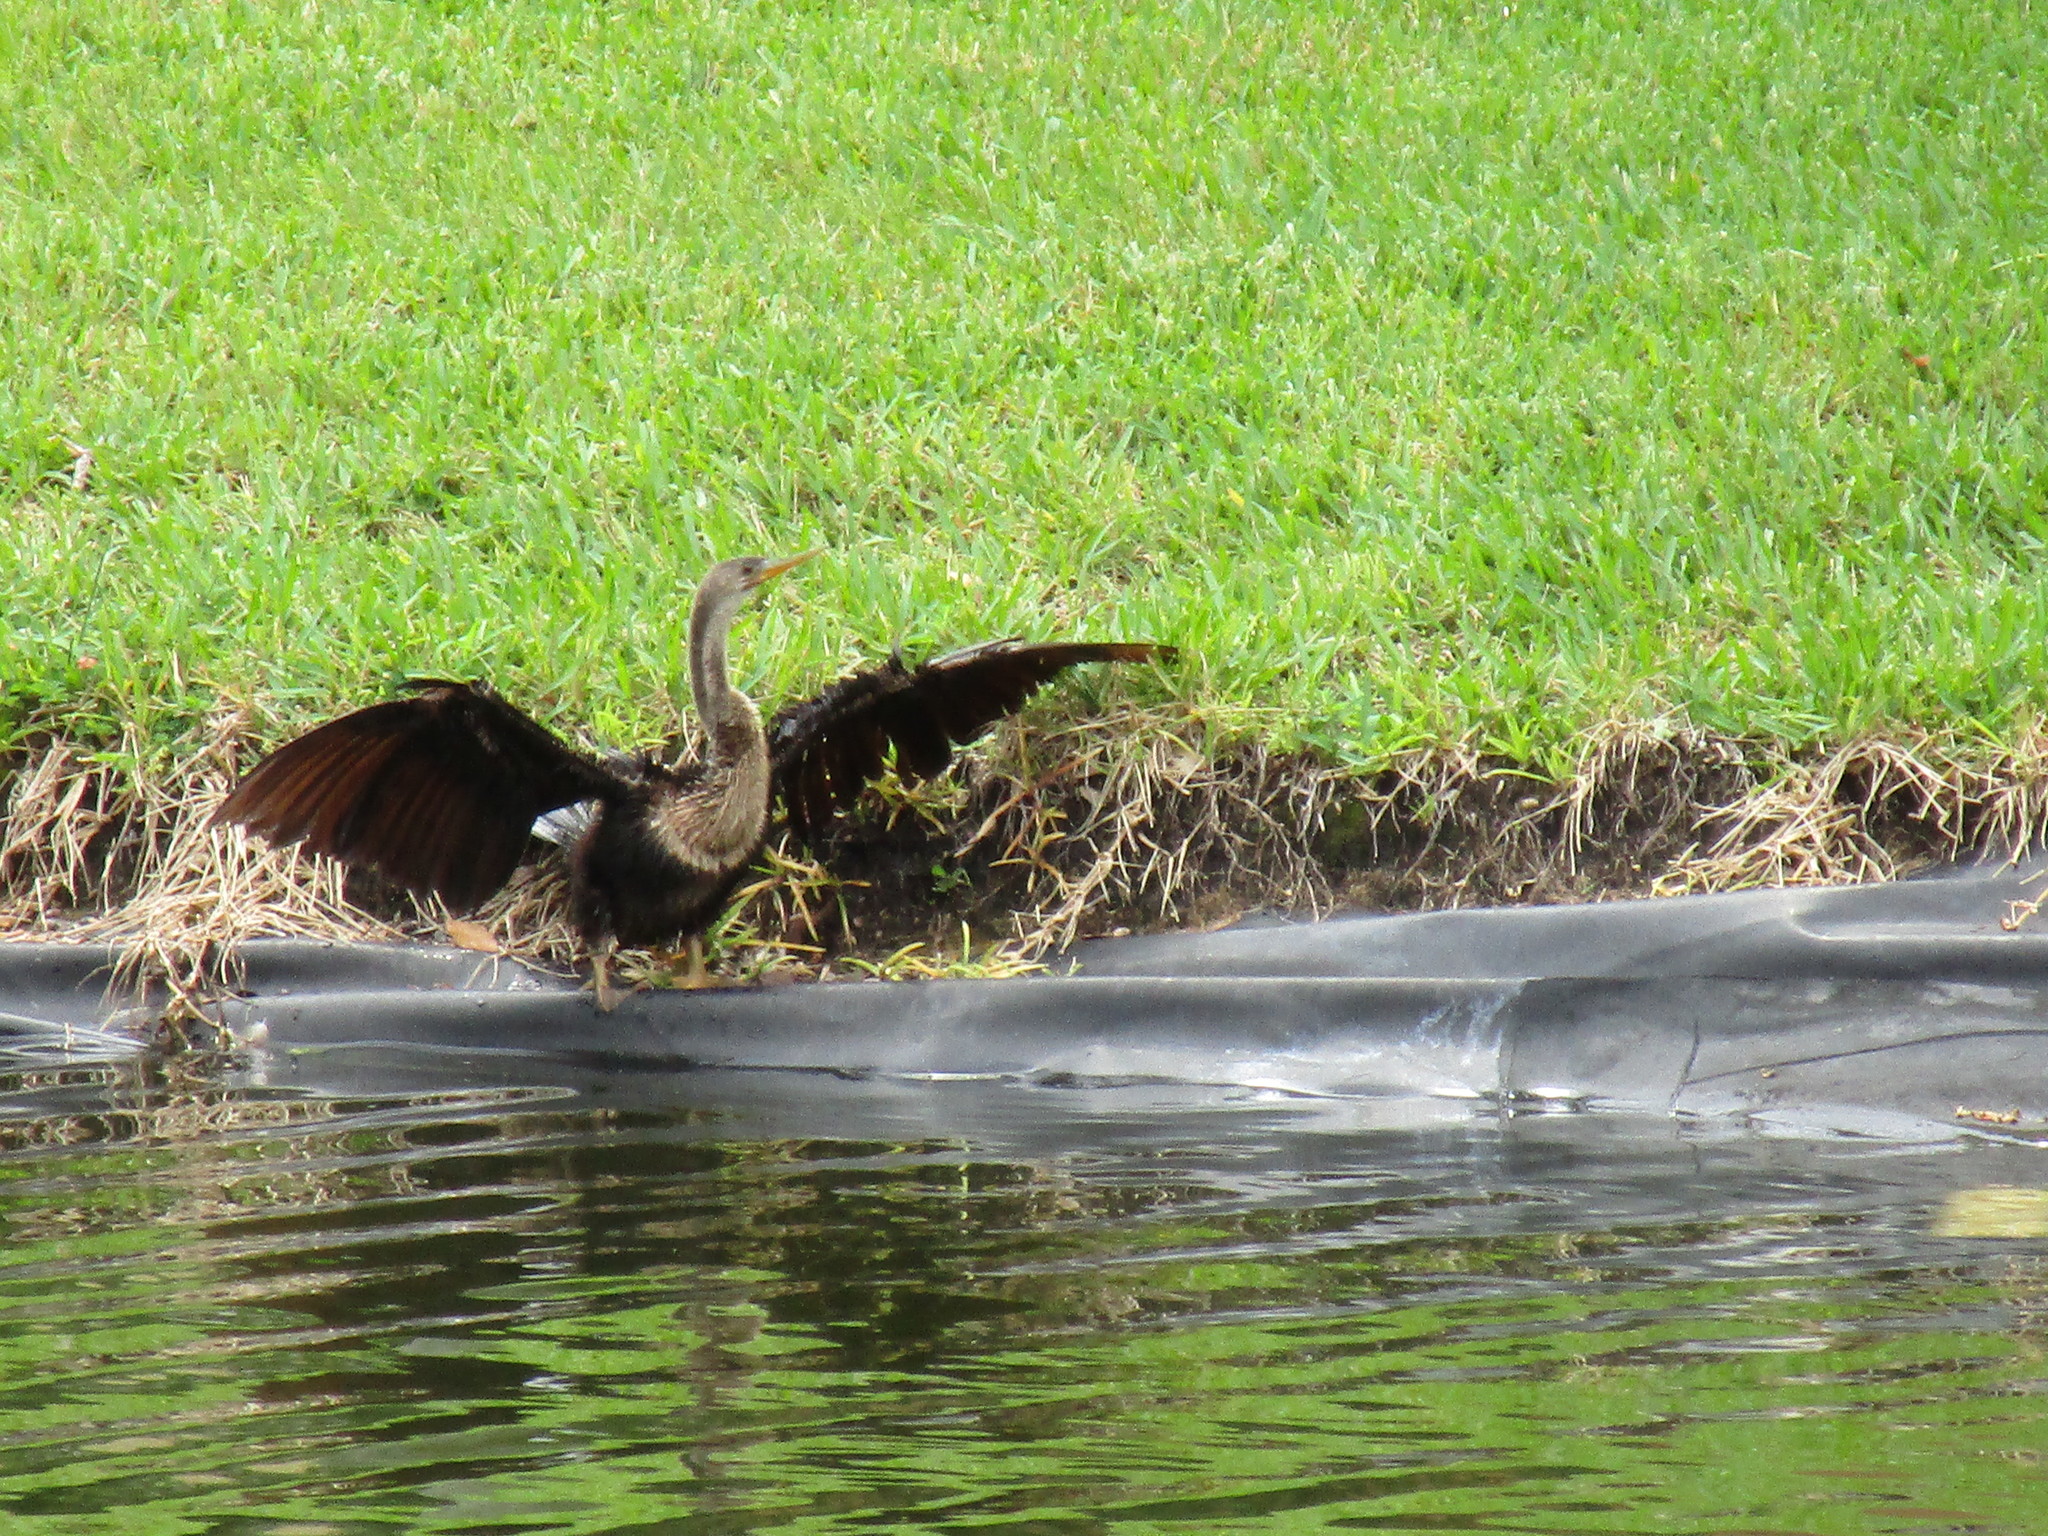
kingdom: Animalia
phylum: Chordata
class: Aves
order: Suliformes
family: Anhingidae
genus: Anhinga
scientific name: Anhinga anhinga
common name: Anhinga
